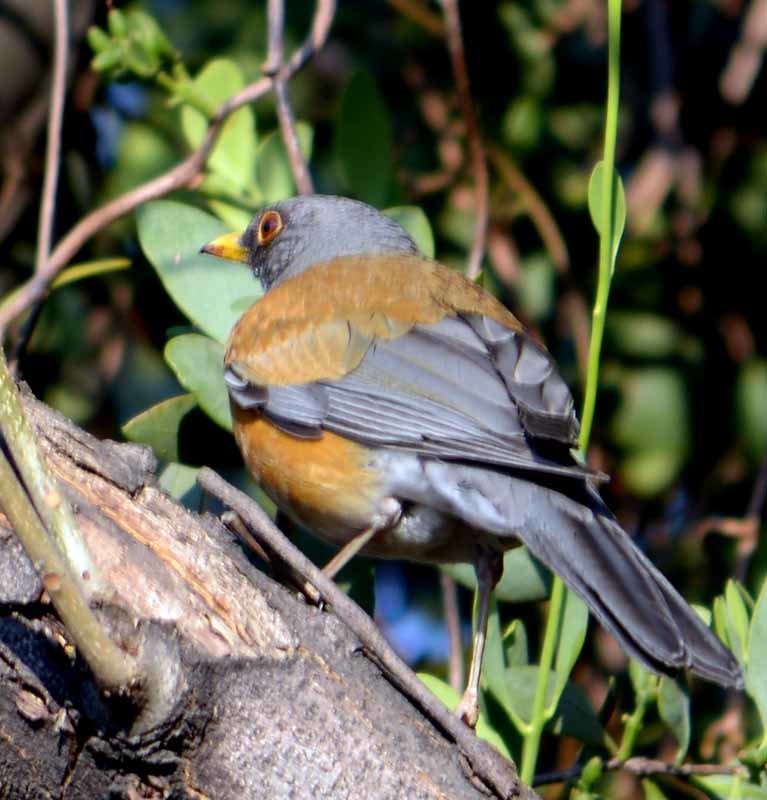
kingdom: Animalia
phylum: Chordata
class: Aves
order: Passeriformes
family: Turdidae
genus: Turdus
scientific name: Turdus rufopalliatus
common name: Rufous-backed robin
